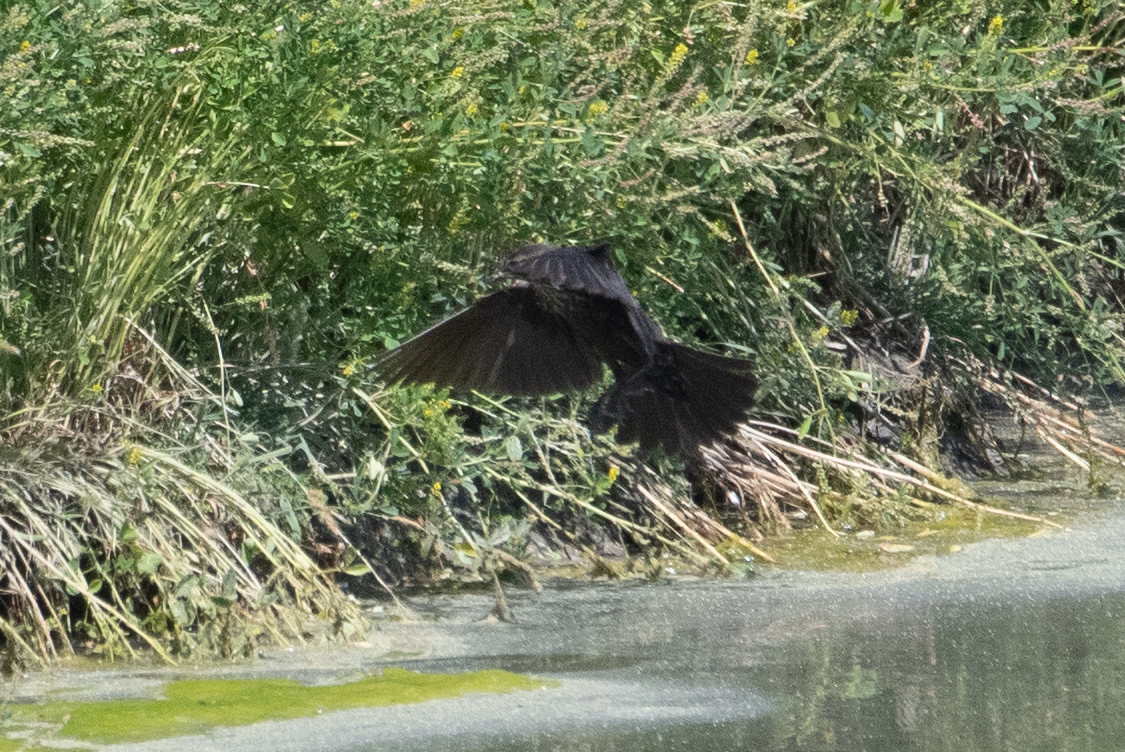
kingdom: Animalia
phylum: Chordata
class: Aves
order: Passeriformes
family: Icteridae
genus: Agelaius
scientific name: Agelaius tricolor
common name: Tricolored blackbird
